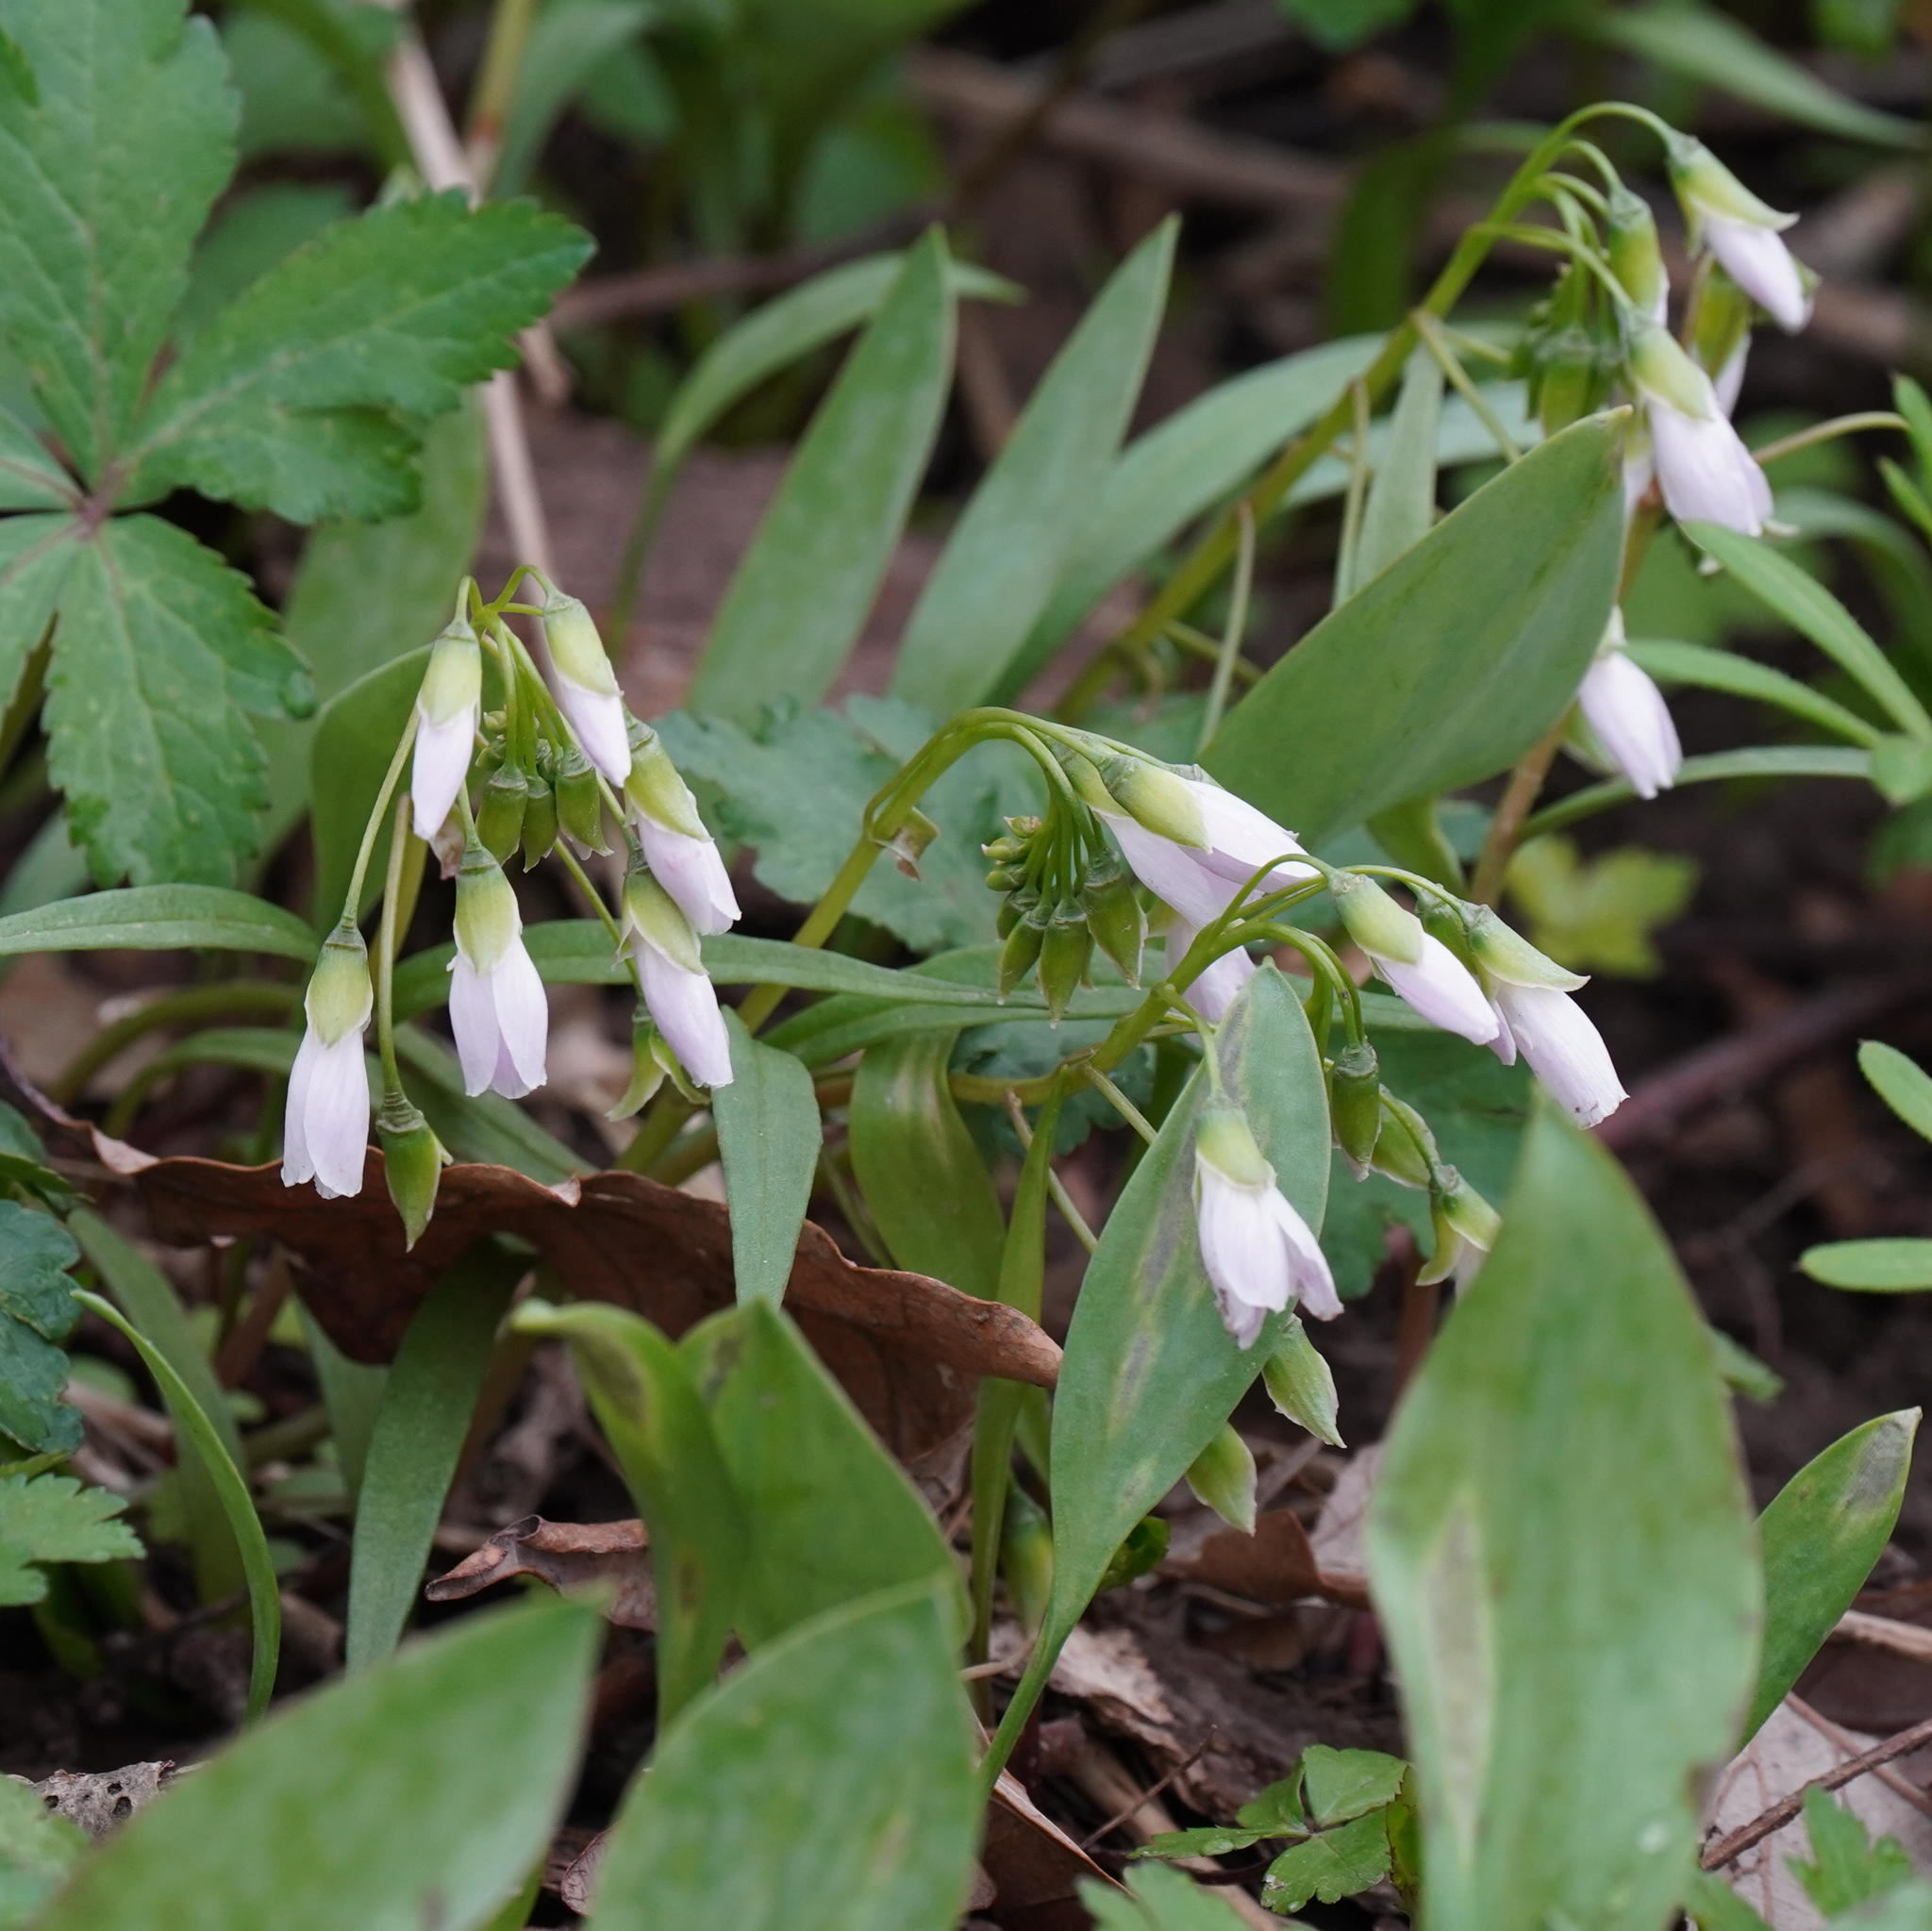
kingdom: Plantae
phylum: Tracheophyta
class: Magnoliopsida
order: Caryophyllales
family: Montiaceae
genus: Claytonia
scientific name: Claytonia virginica
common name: Virginia springbeauty
